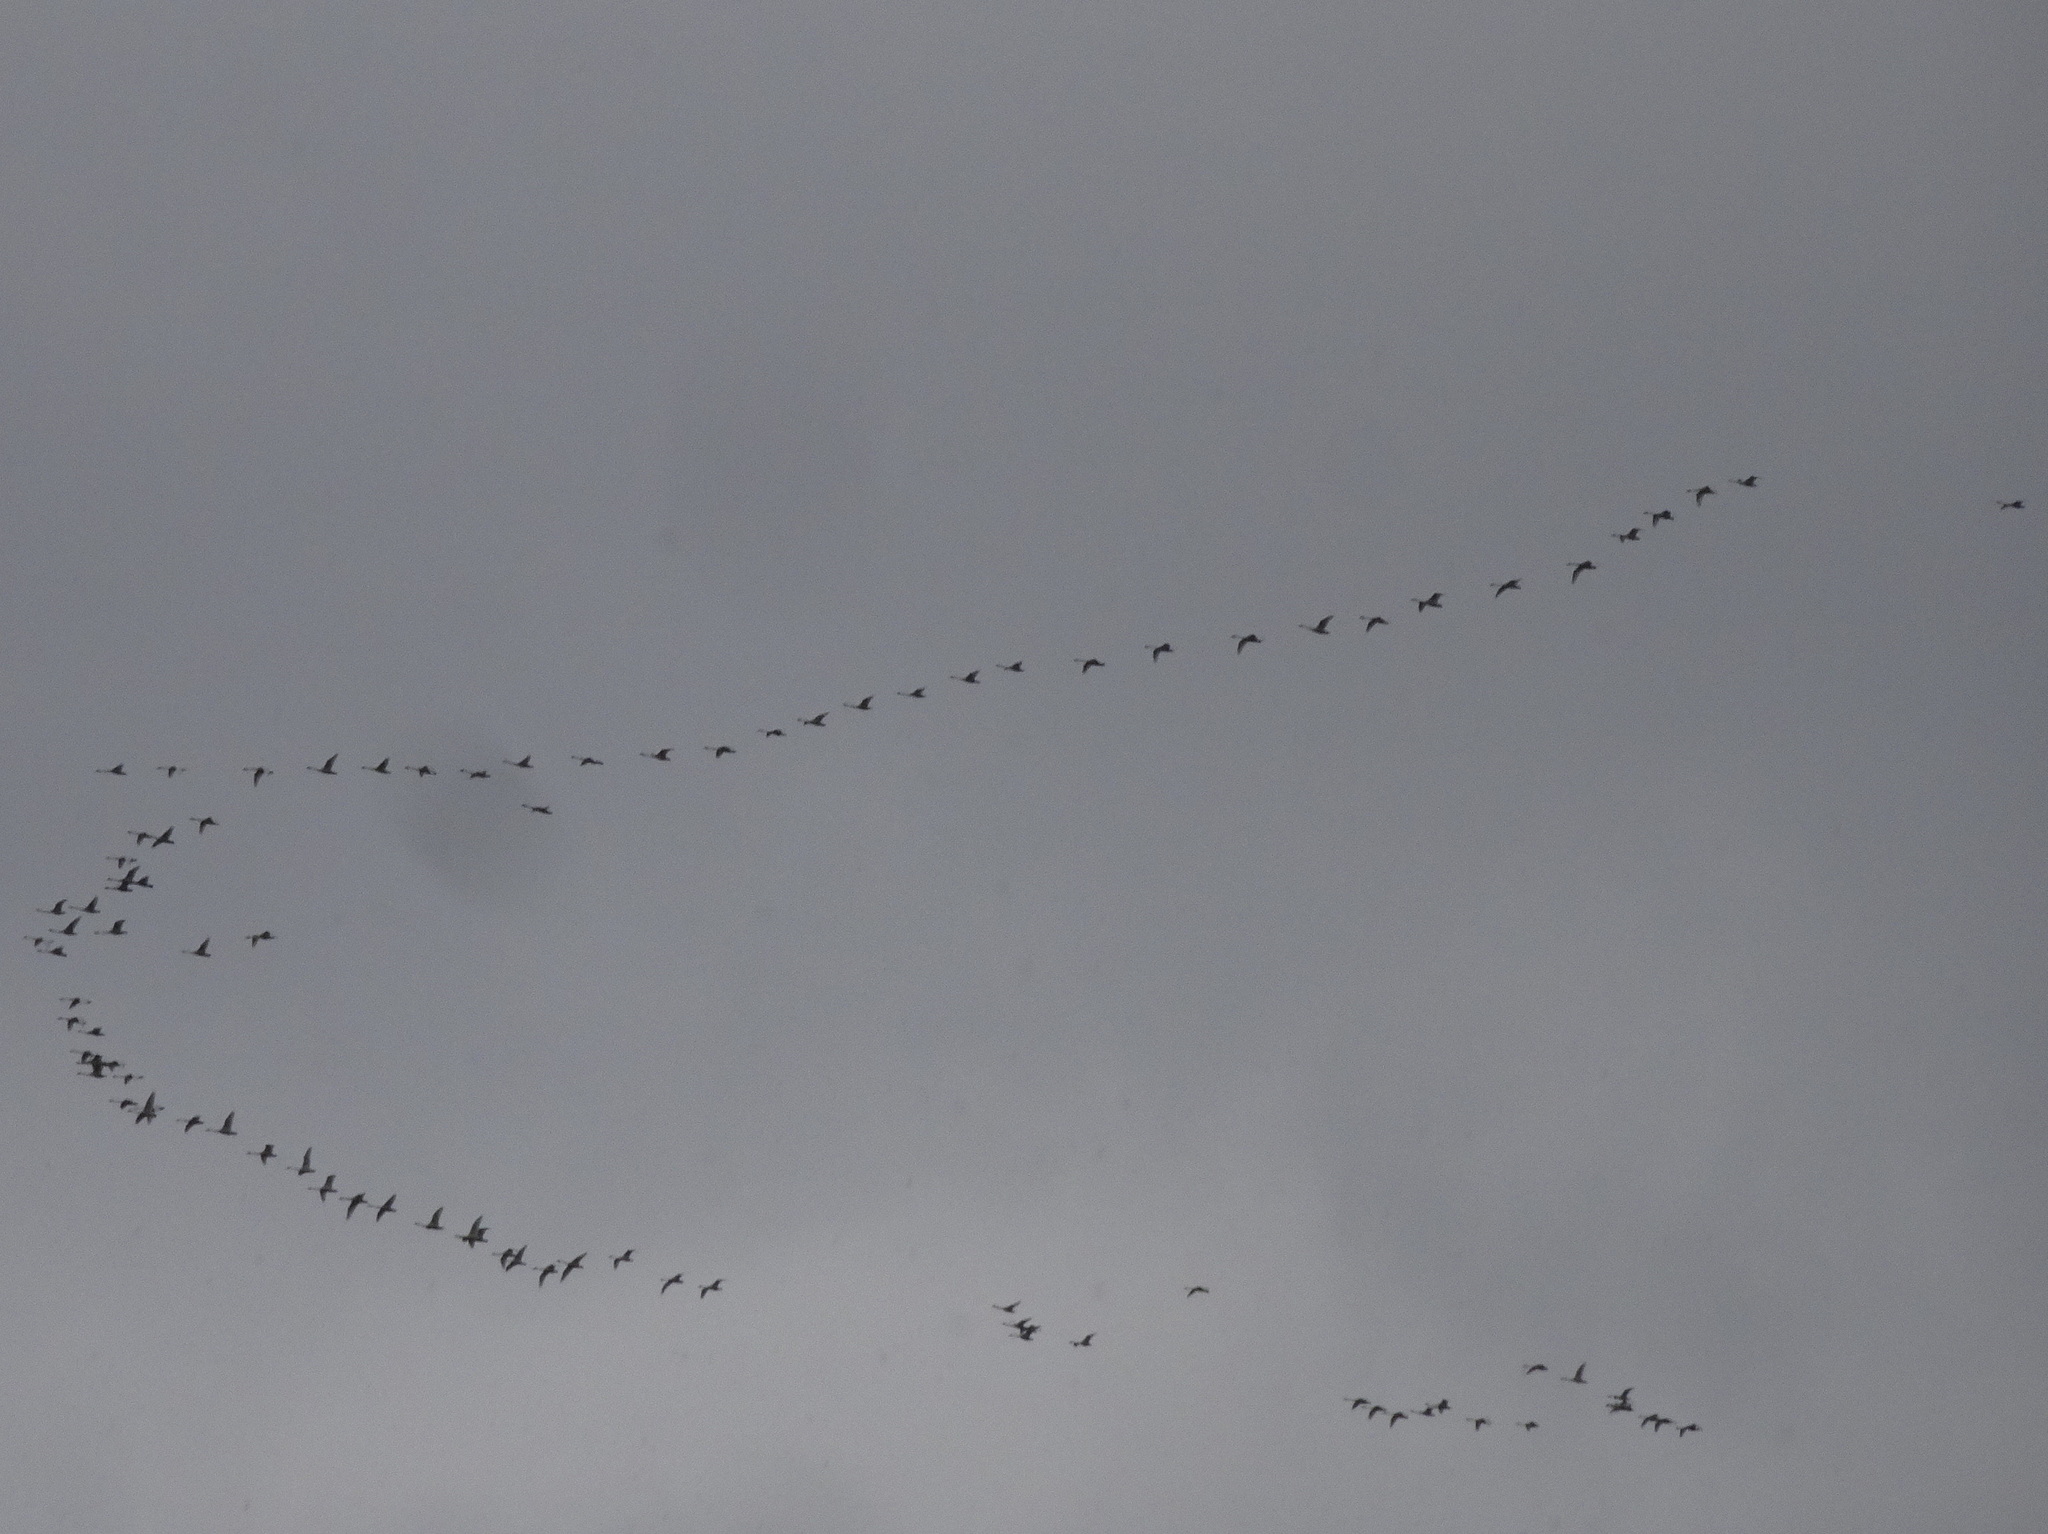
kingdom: Animalia
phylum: Chordata
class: Aves
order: Anseriformes
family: Anatidae
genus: Cygnus
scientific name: Cygnus columbianus
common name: Tundra swan
